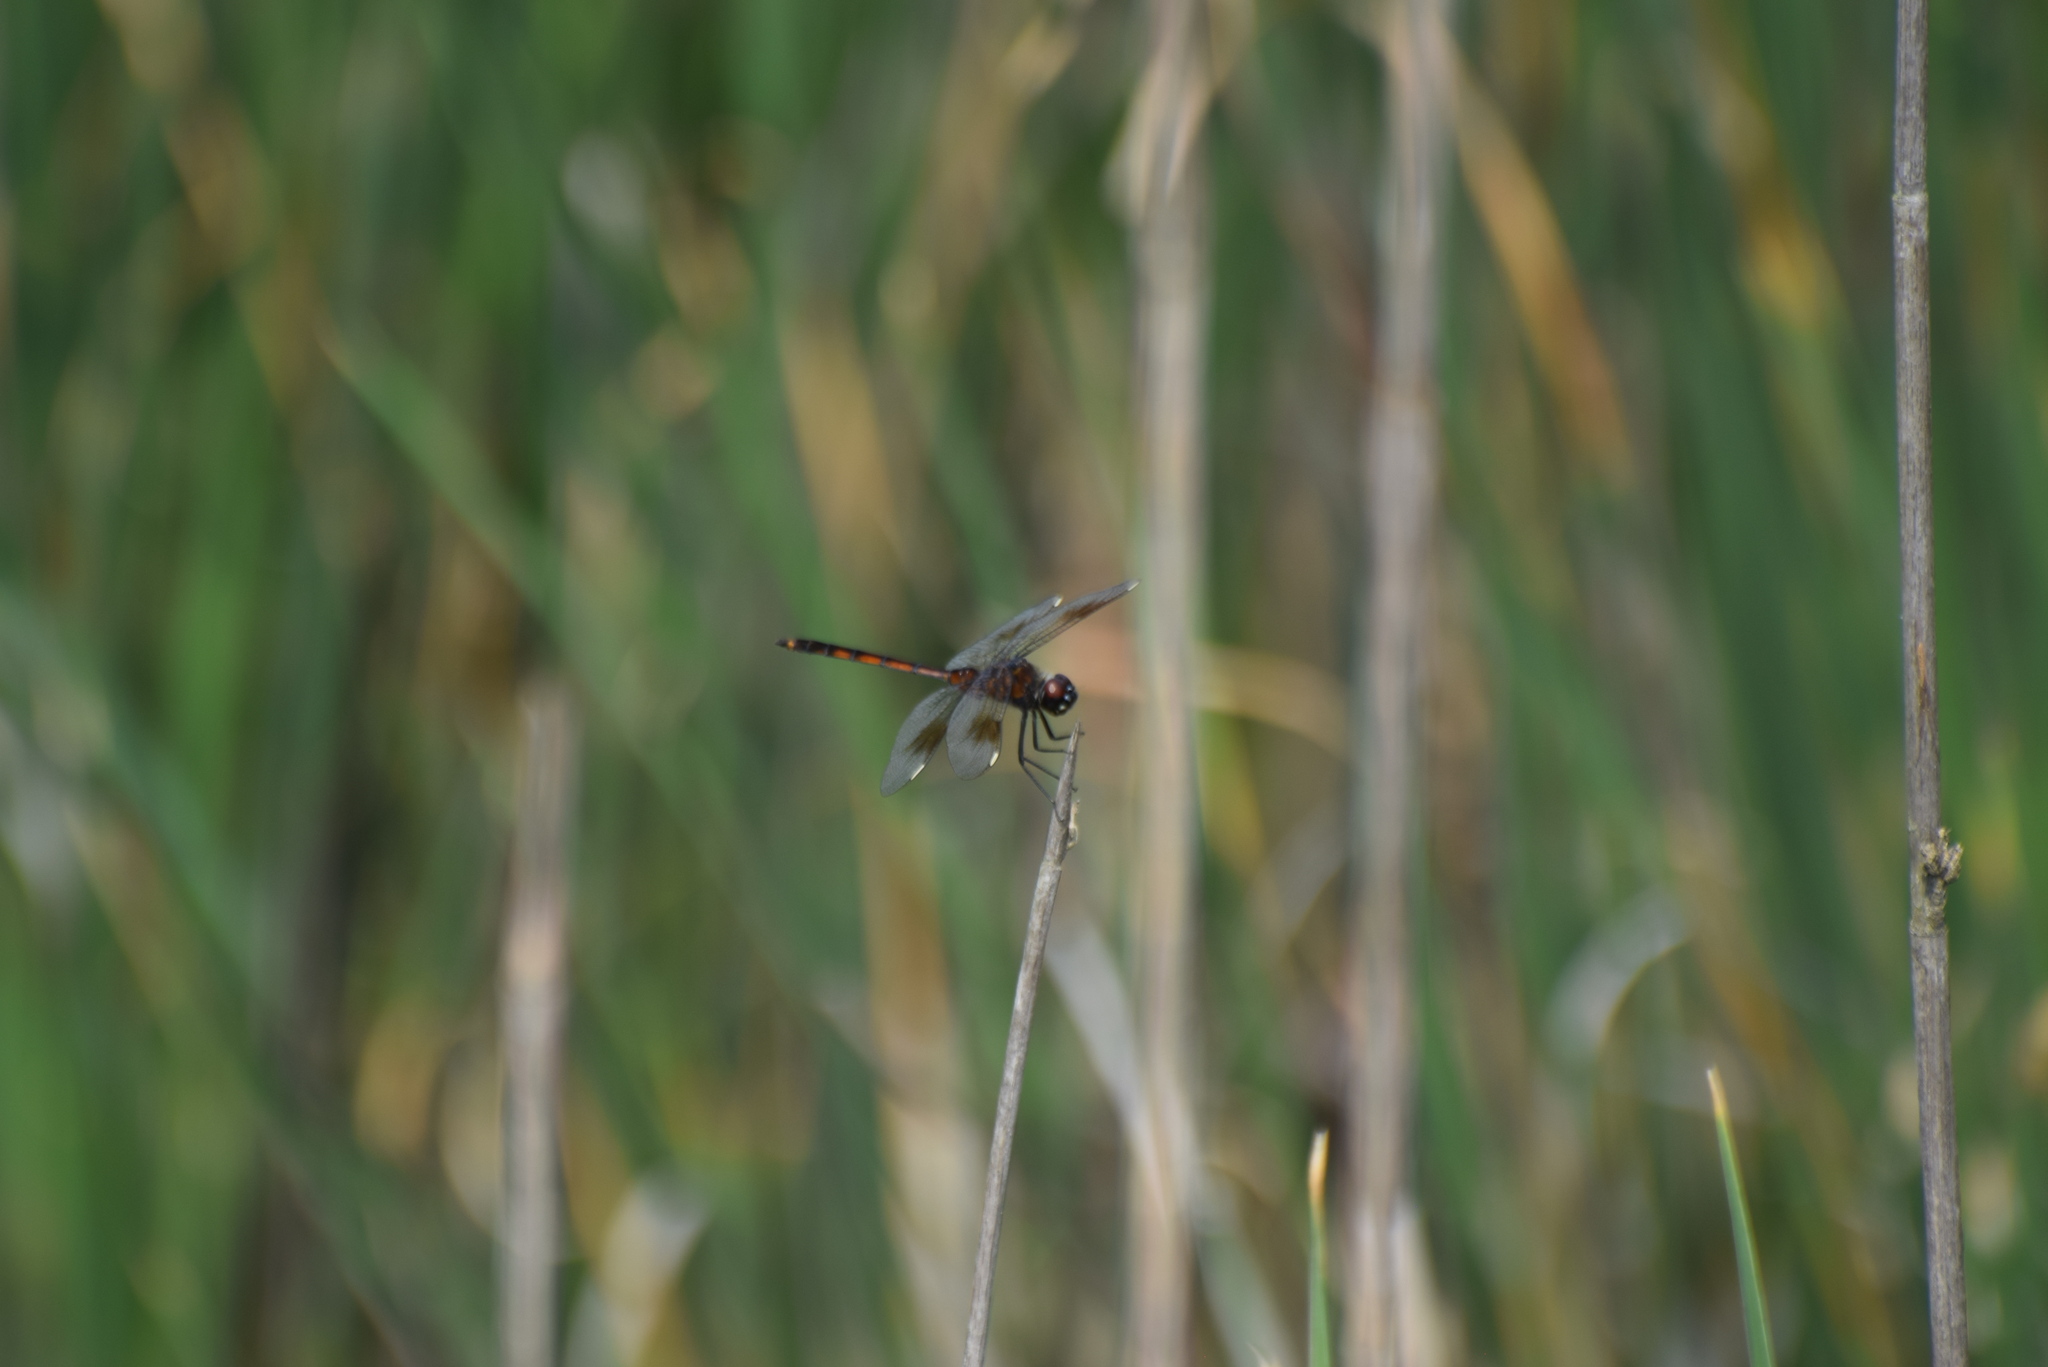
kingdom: Animalia
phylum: Arthropoda
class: Insecta
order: Odonata
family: Libellulidae
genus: Brachymesia
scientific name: Brachymesia gravida
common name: Four-spotted pennant
